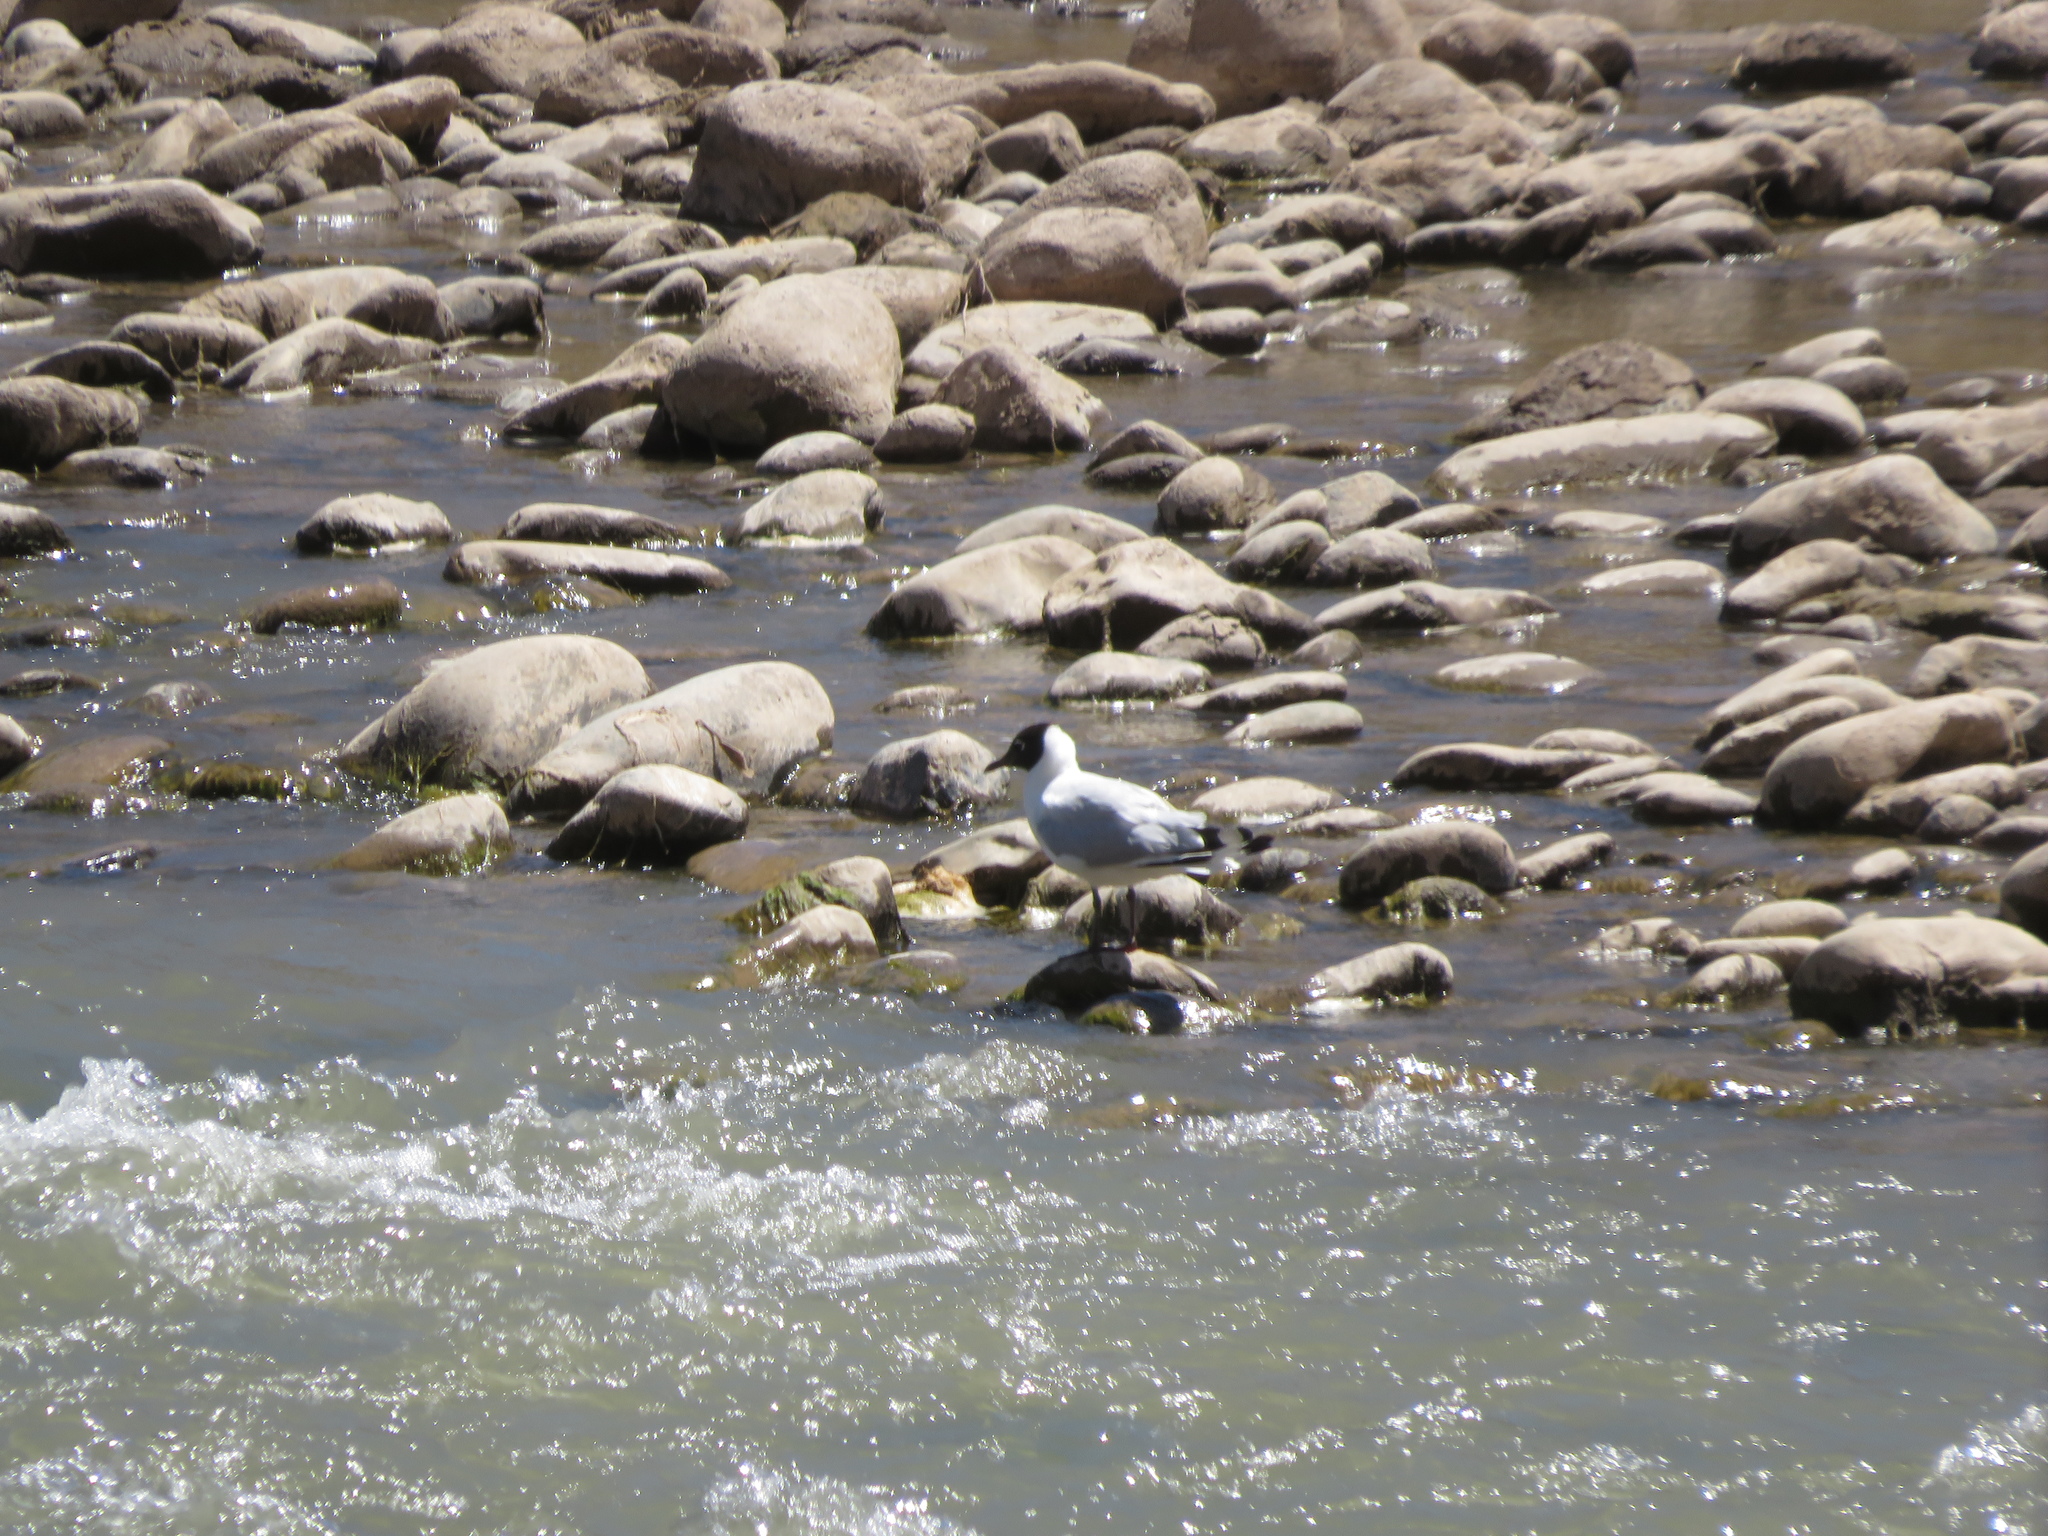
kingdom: Animalia
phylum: Chordata
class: Aves
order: Charadriiformes
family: Laridae
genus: Chroicocephalus
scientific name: Chroicocephalus serranus
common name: Andean gull
